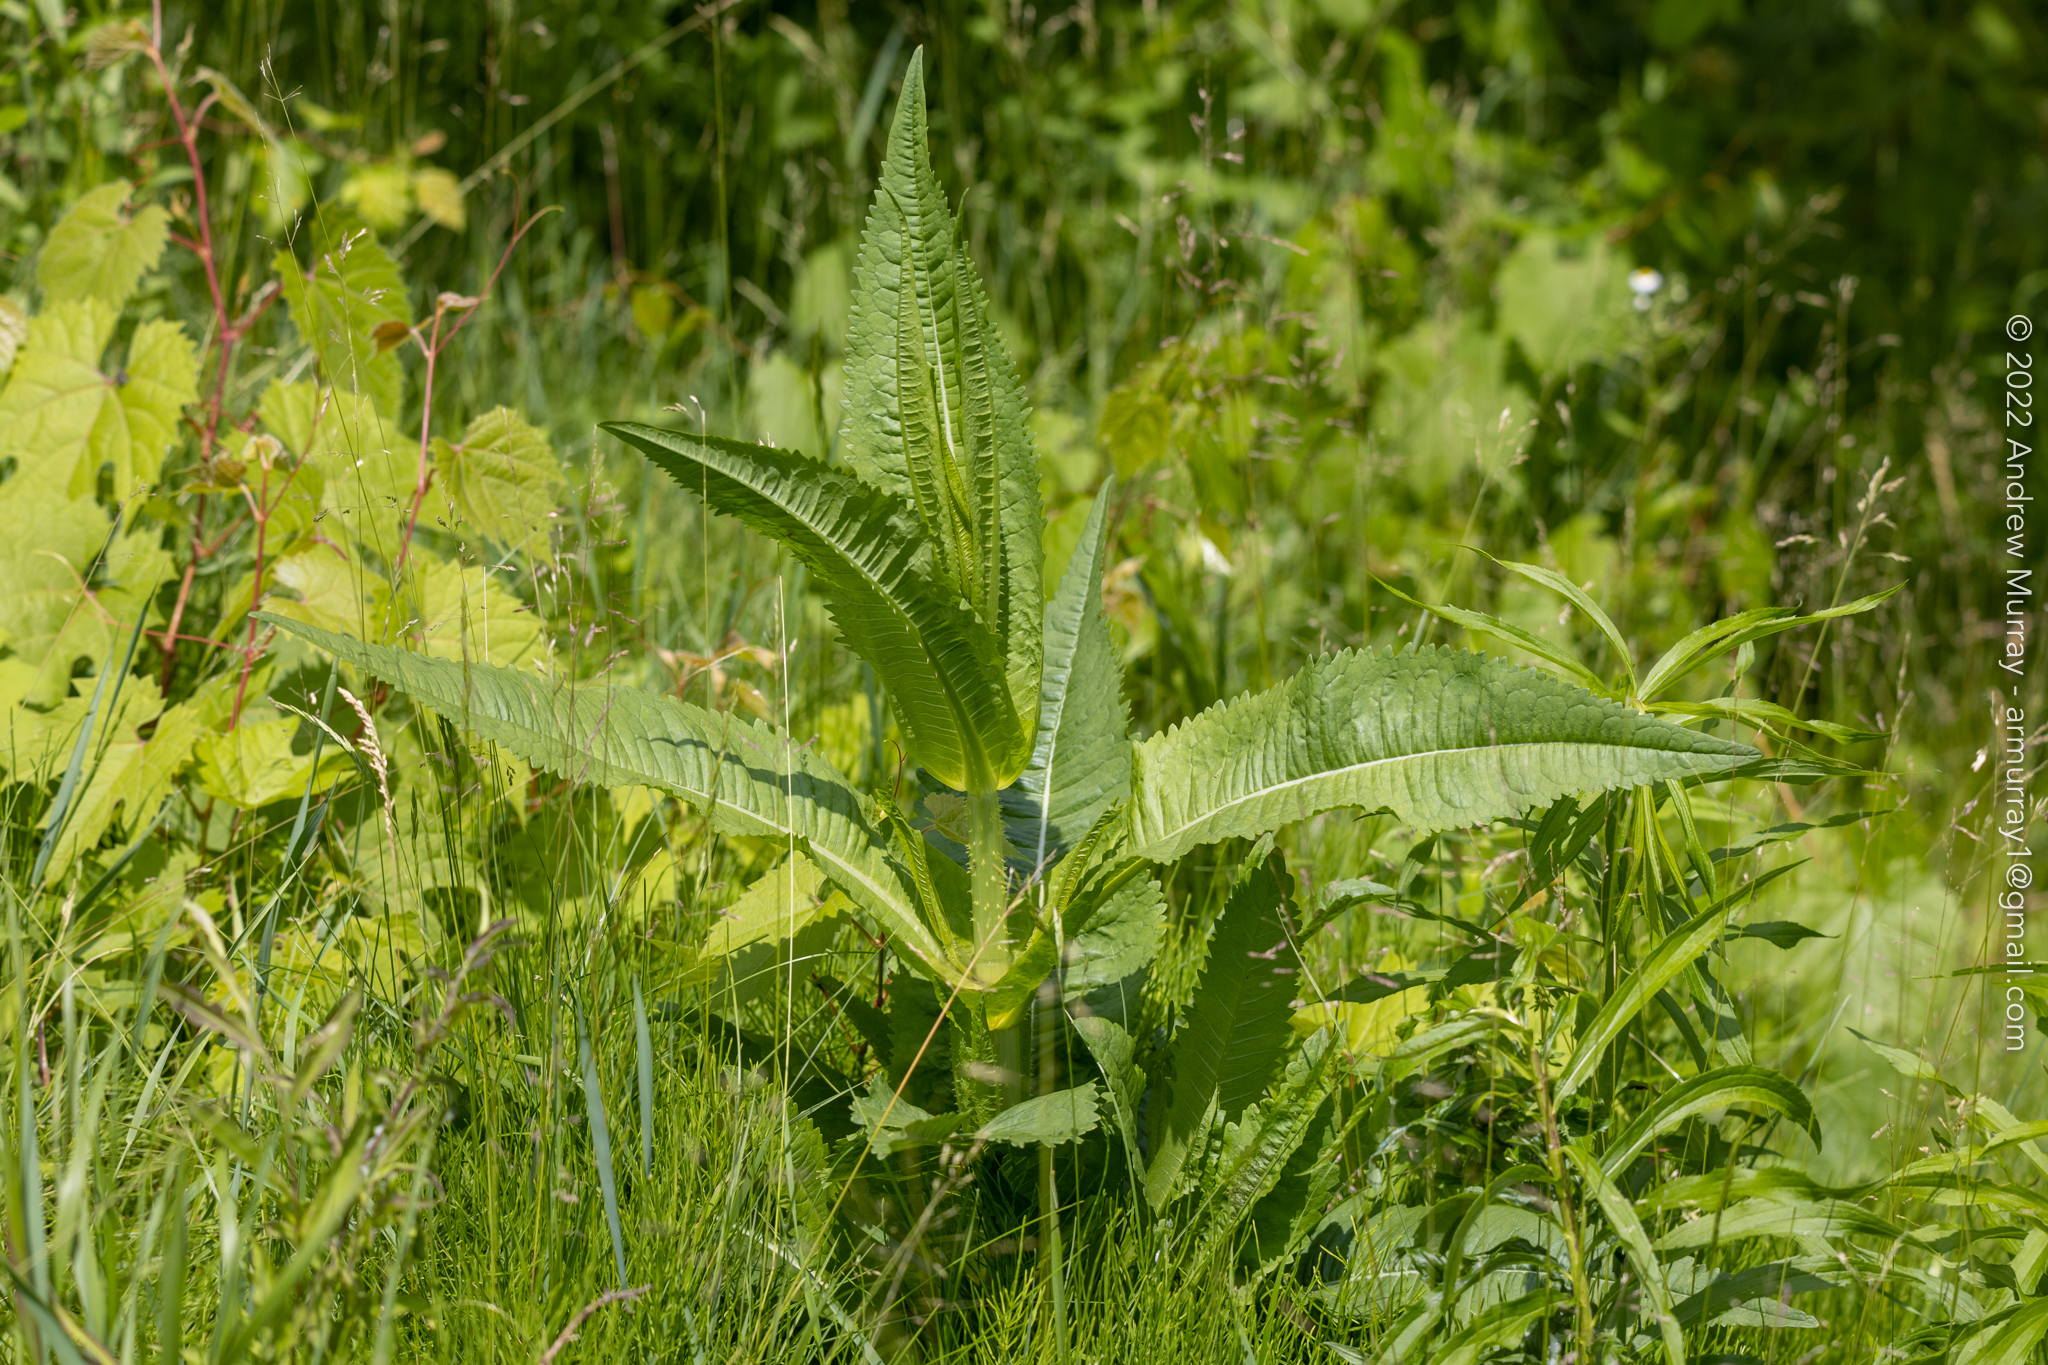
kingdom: Plantae
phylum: Tracheophyta
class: Magnoliopsida
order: Dipsacales
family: Caprifoliaceae
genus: Dipsacus
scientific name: Dipsacus fullonum
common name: Teasel
